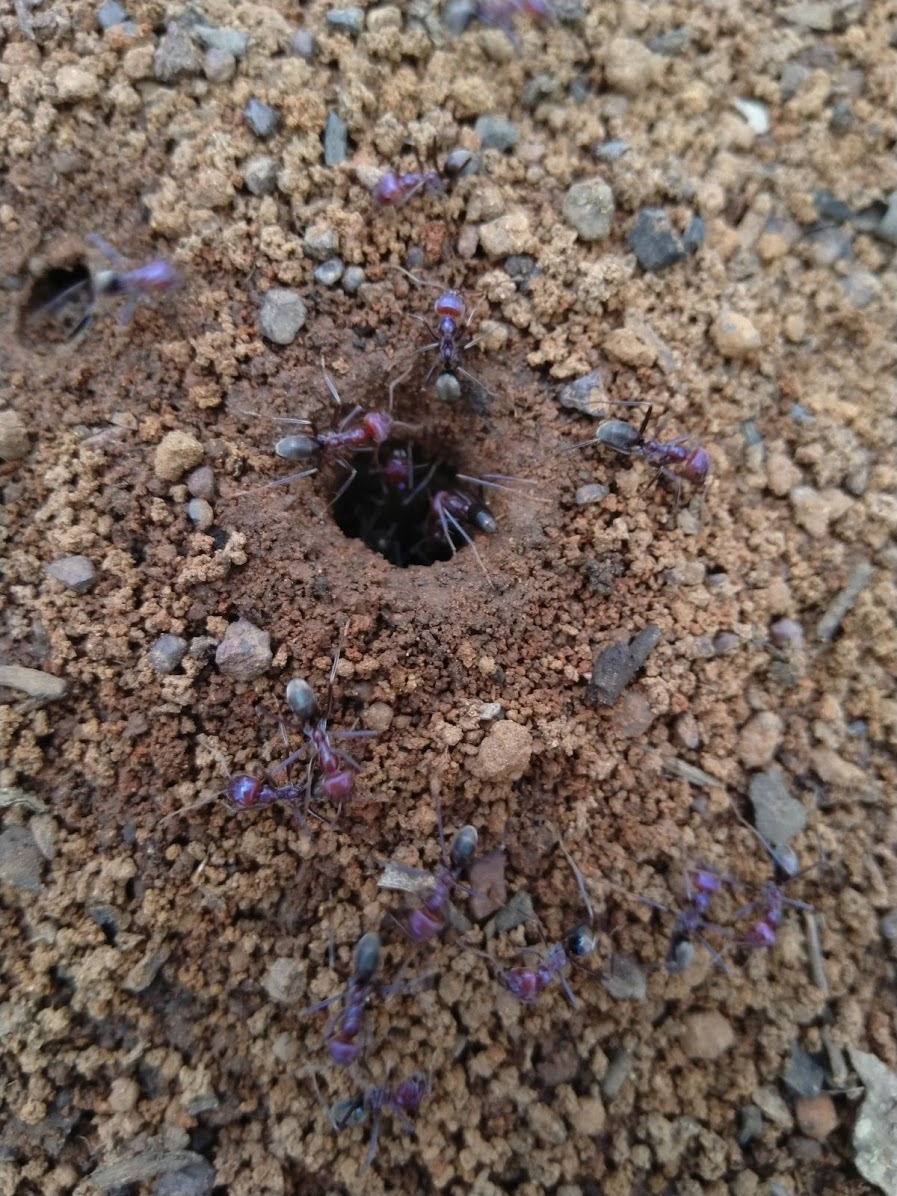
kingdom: Animalia
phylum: Arthropoda
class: Insecta
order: Hymenoptera
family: Formicidae
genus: Iridomyrmex
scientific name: Iridomyrmex purpureus
